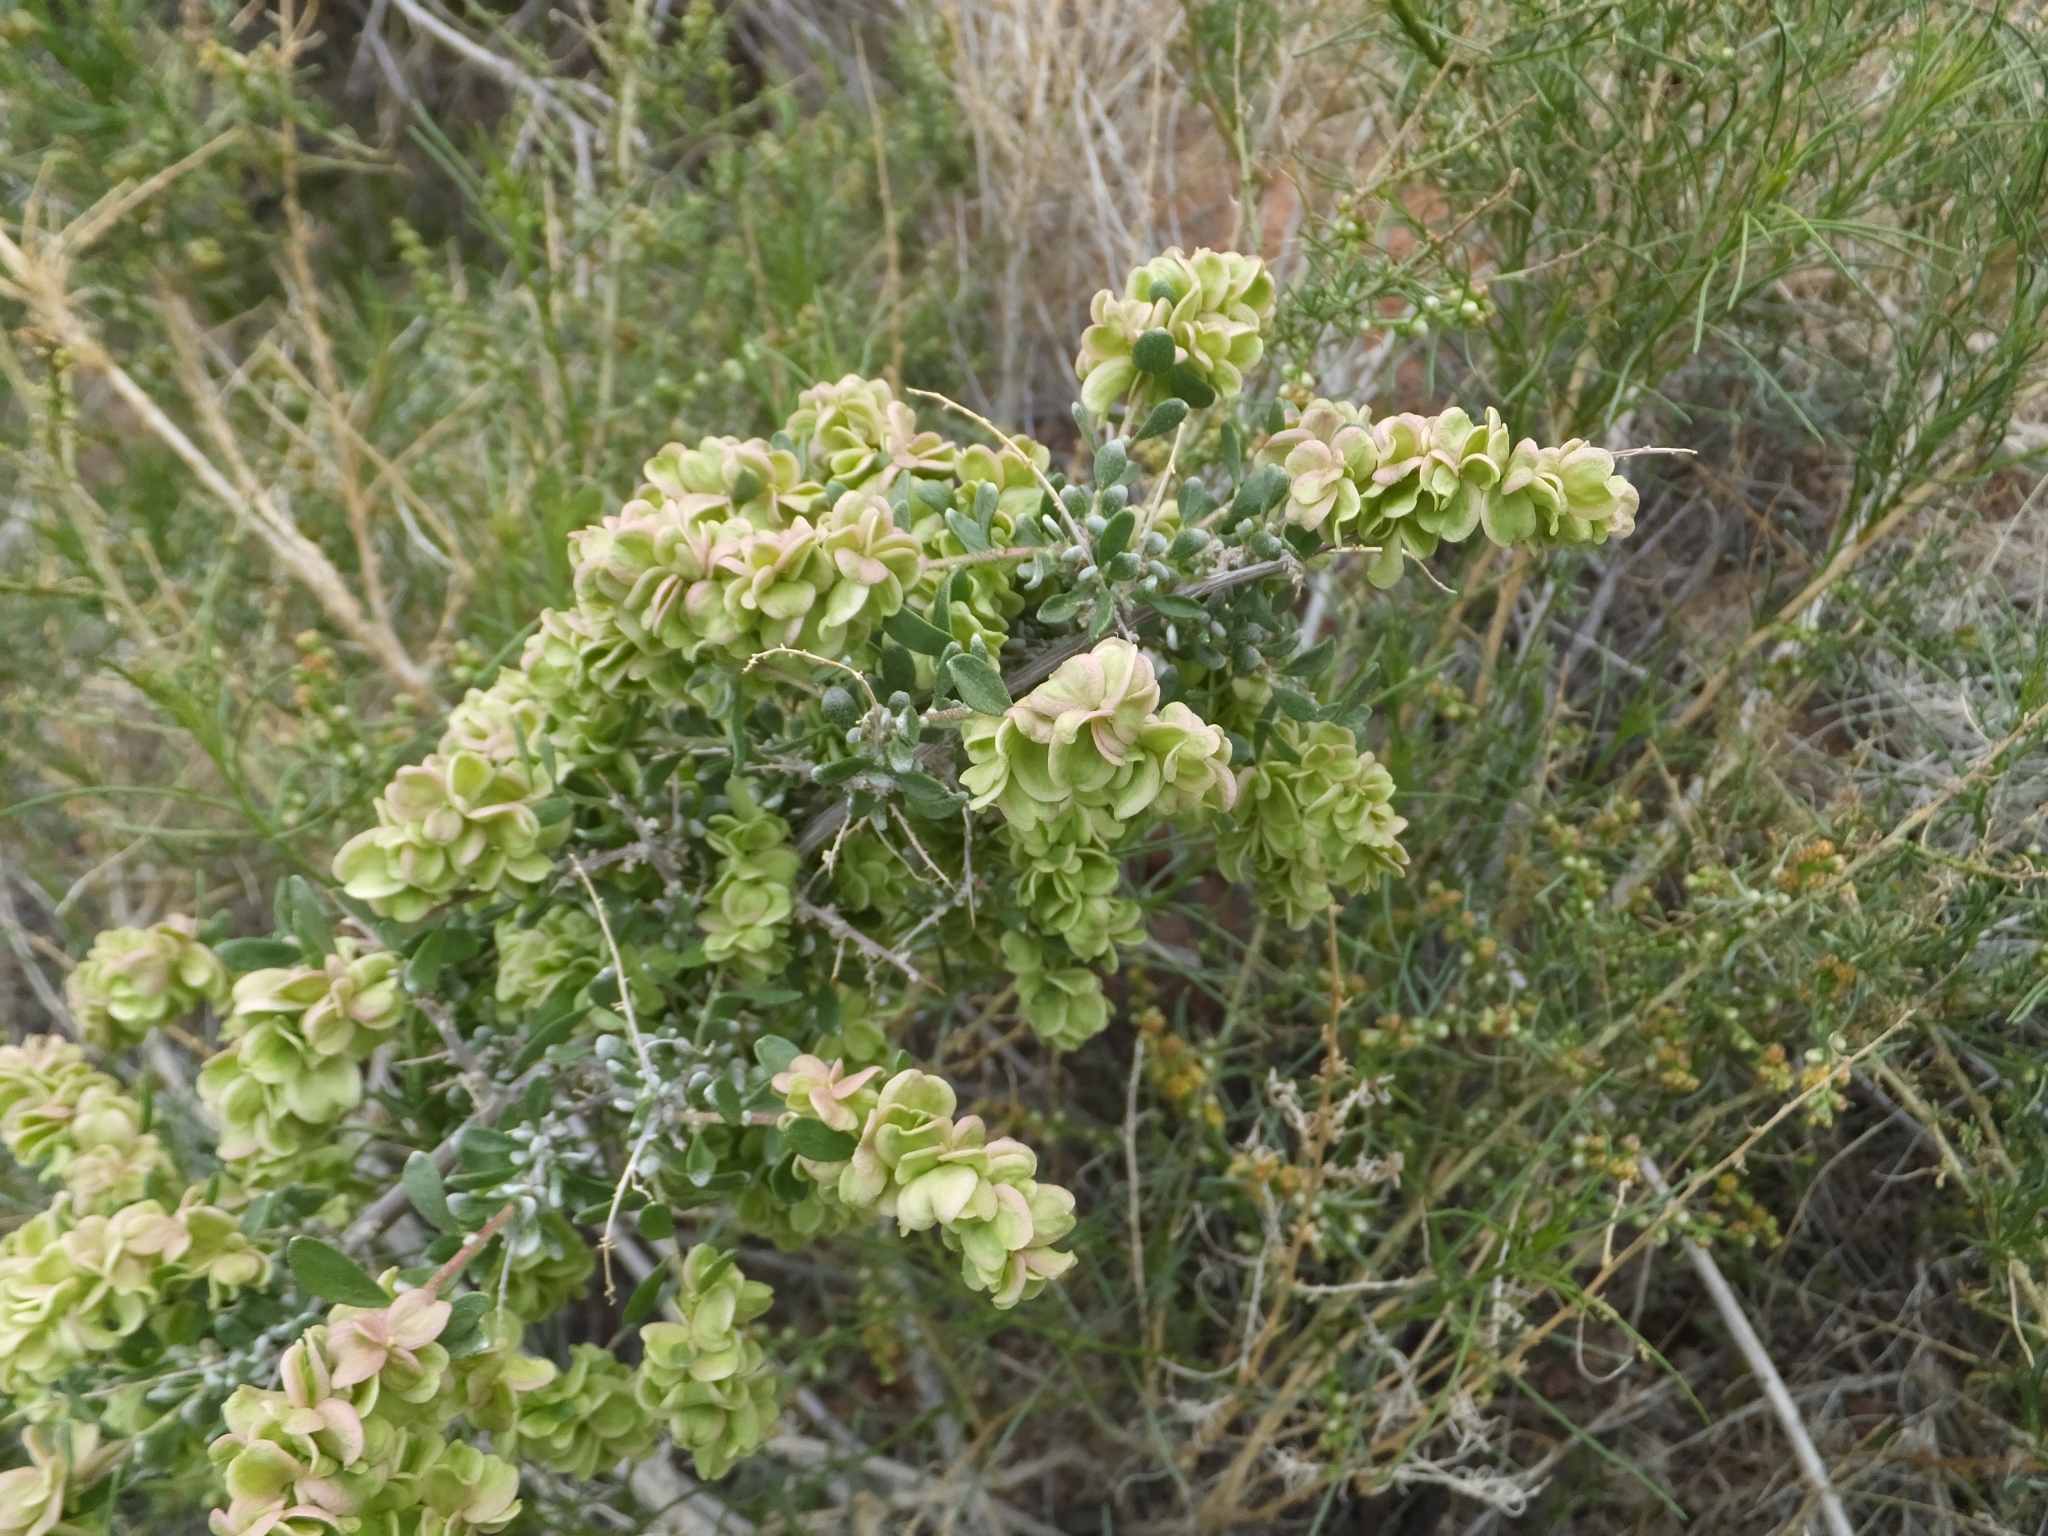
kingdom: Plantae
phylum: Tracheophyta
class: Magnoliopsida
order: Caryophyllales
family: Amaranthaceae
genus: Grayia
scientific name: Grayia spinosa
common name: Spiny hopsage
